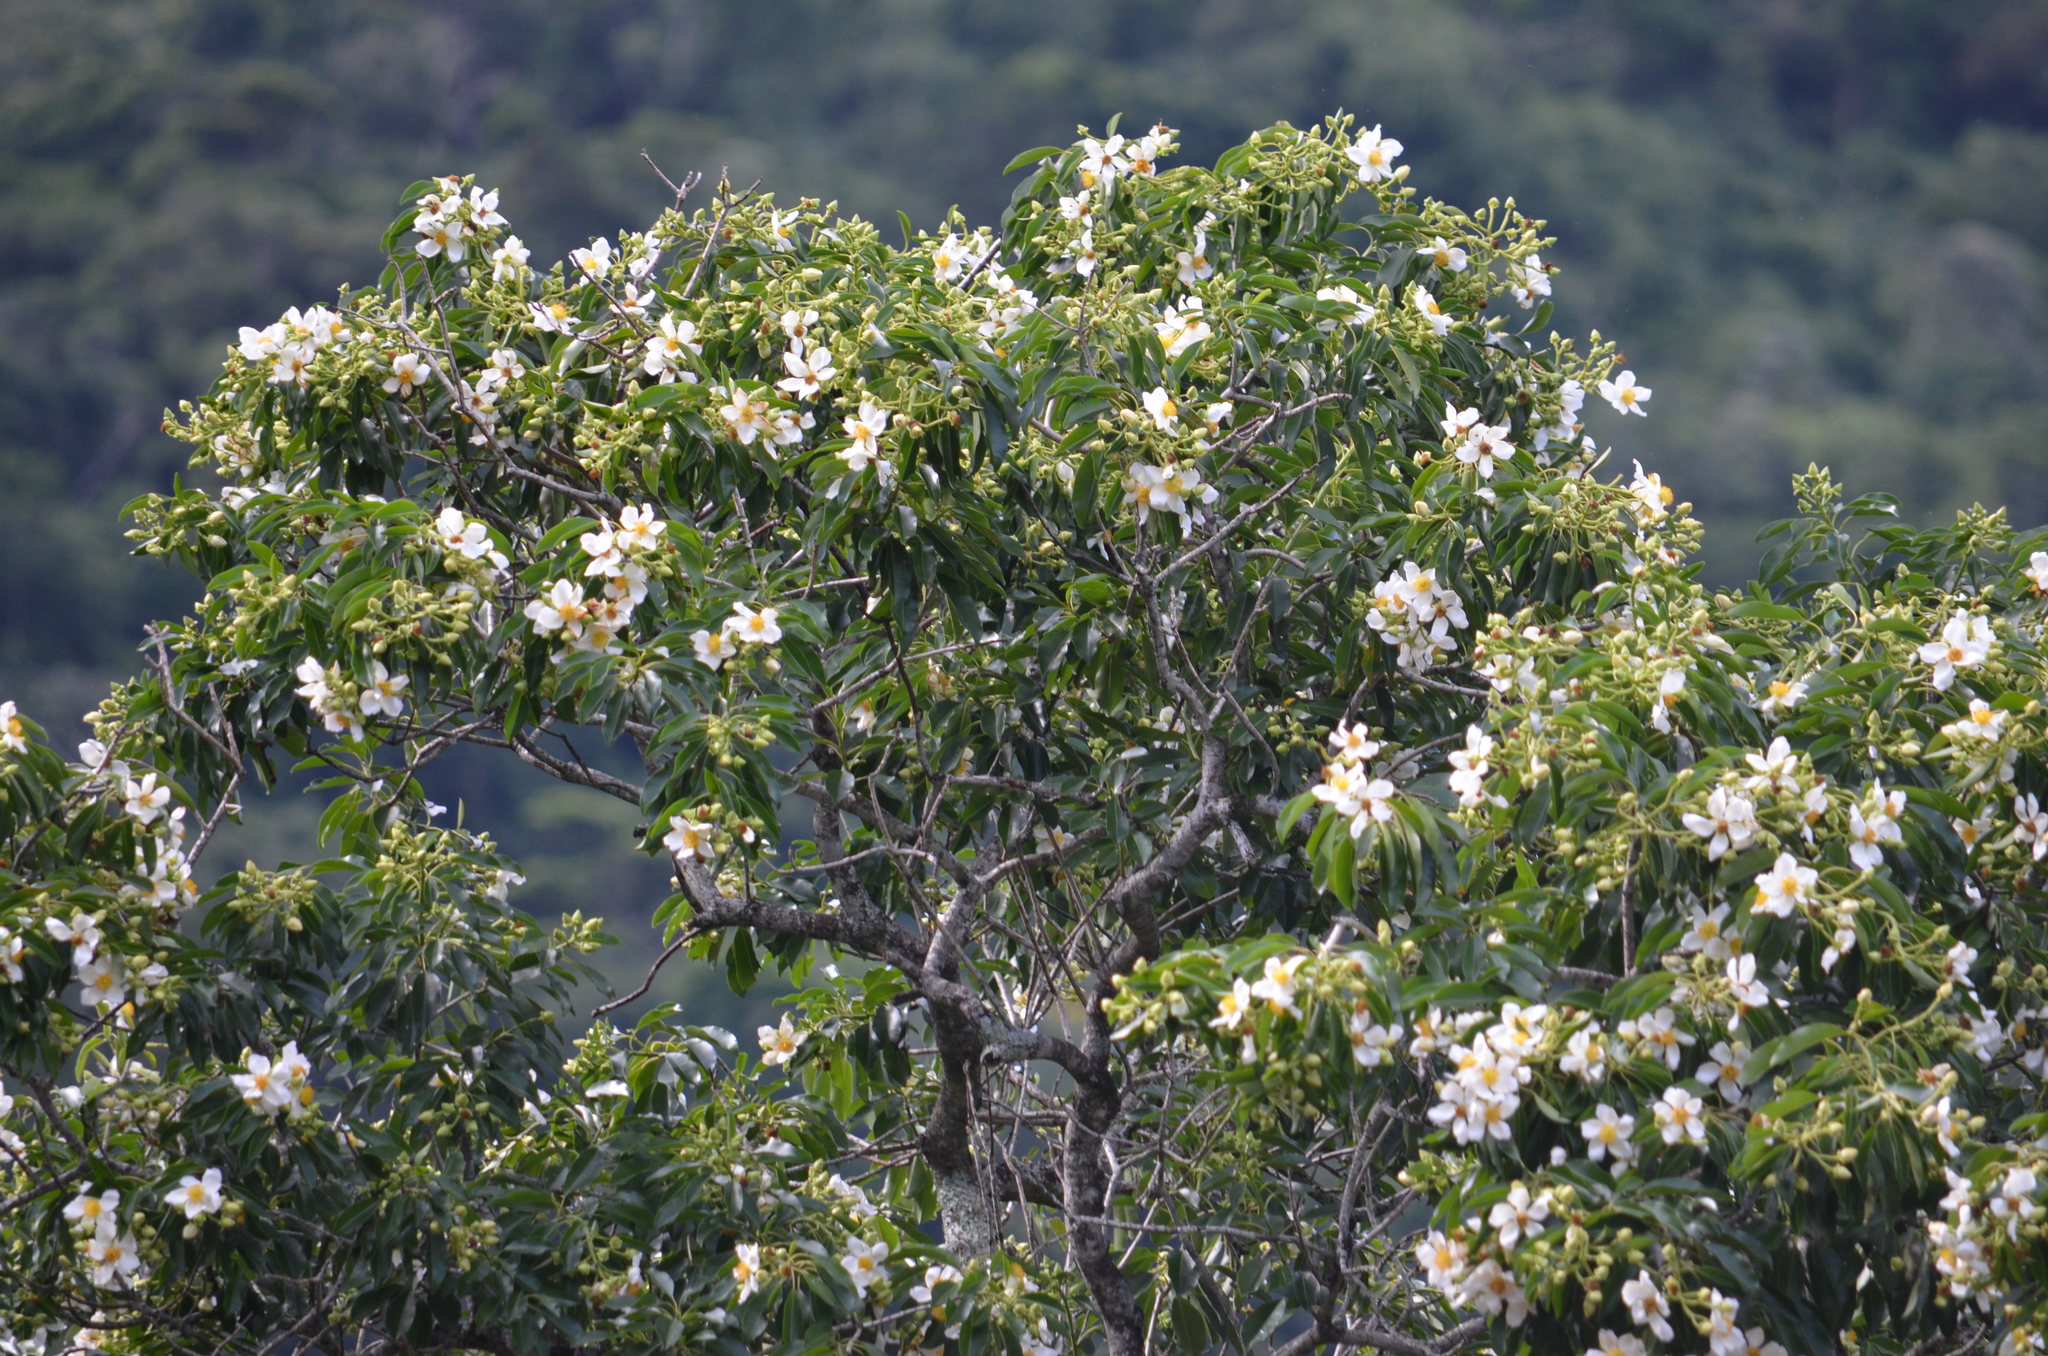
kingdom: Plantae
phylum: Tracheophyta
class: Magnoliopsida
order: Ericales
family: Theaceae
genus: Gordonia
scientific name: Gordonia fruticosa
